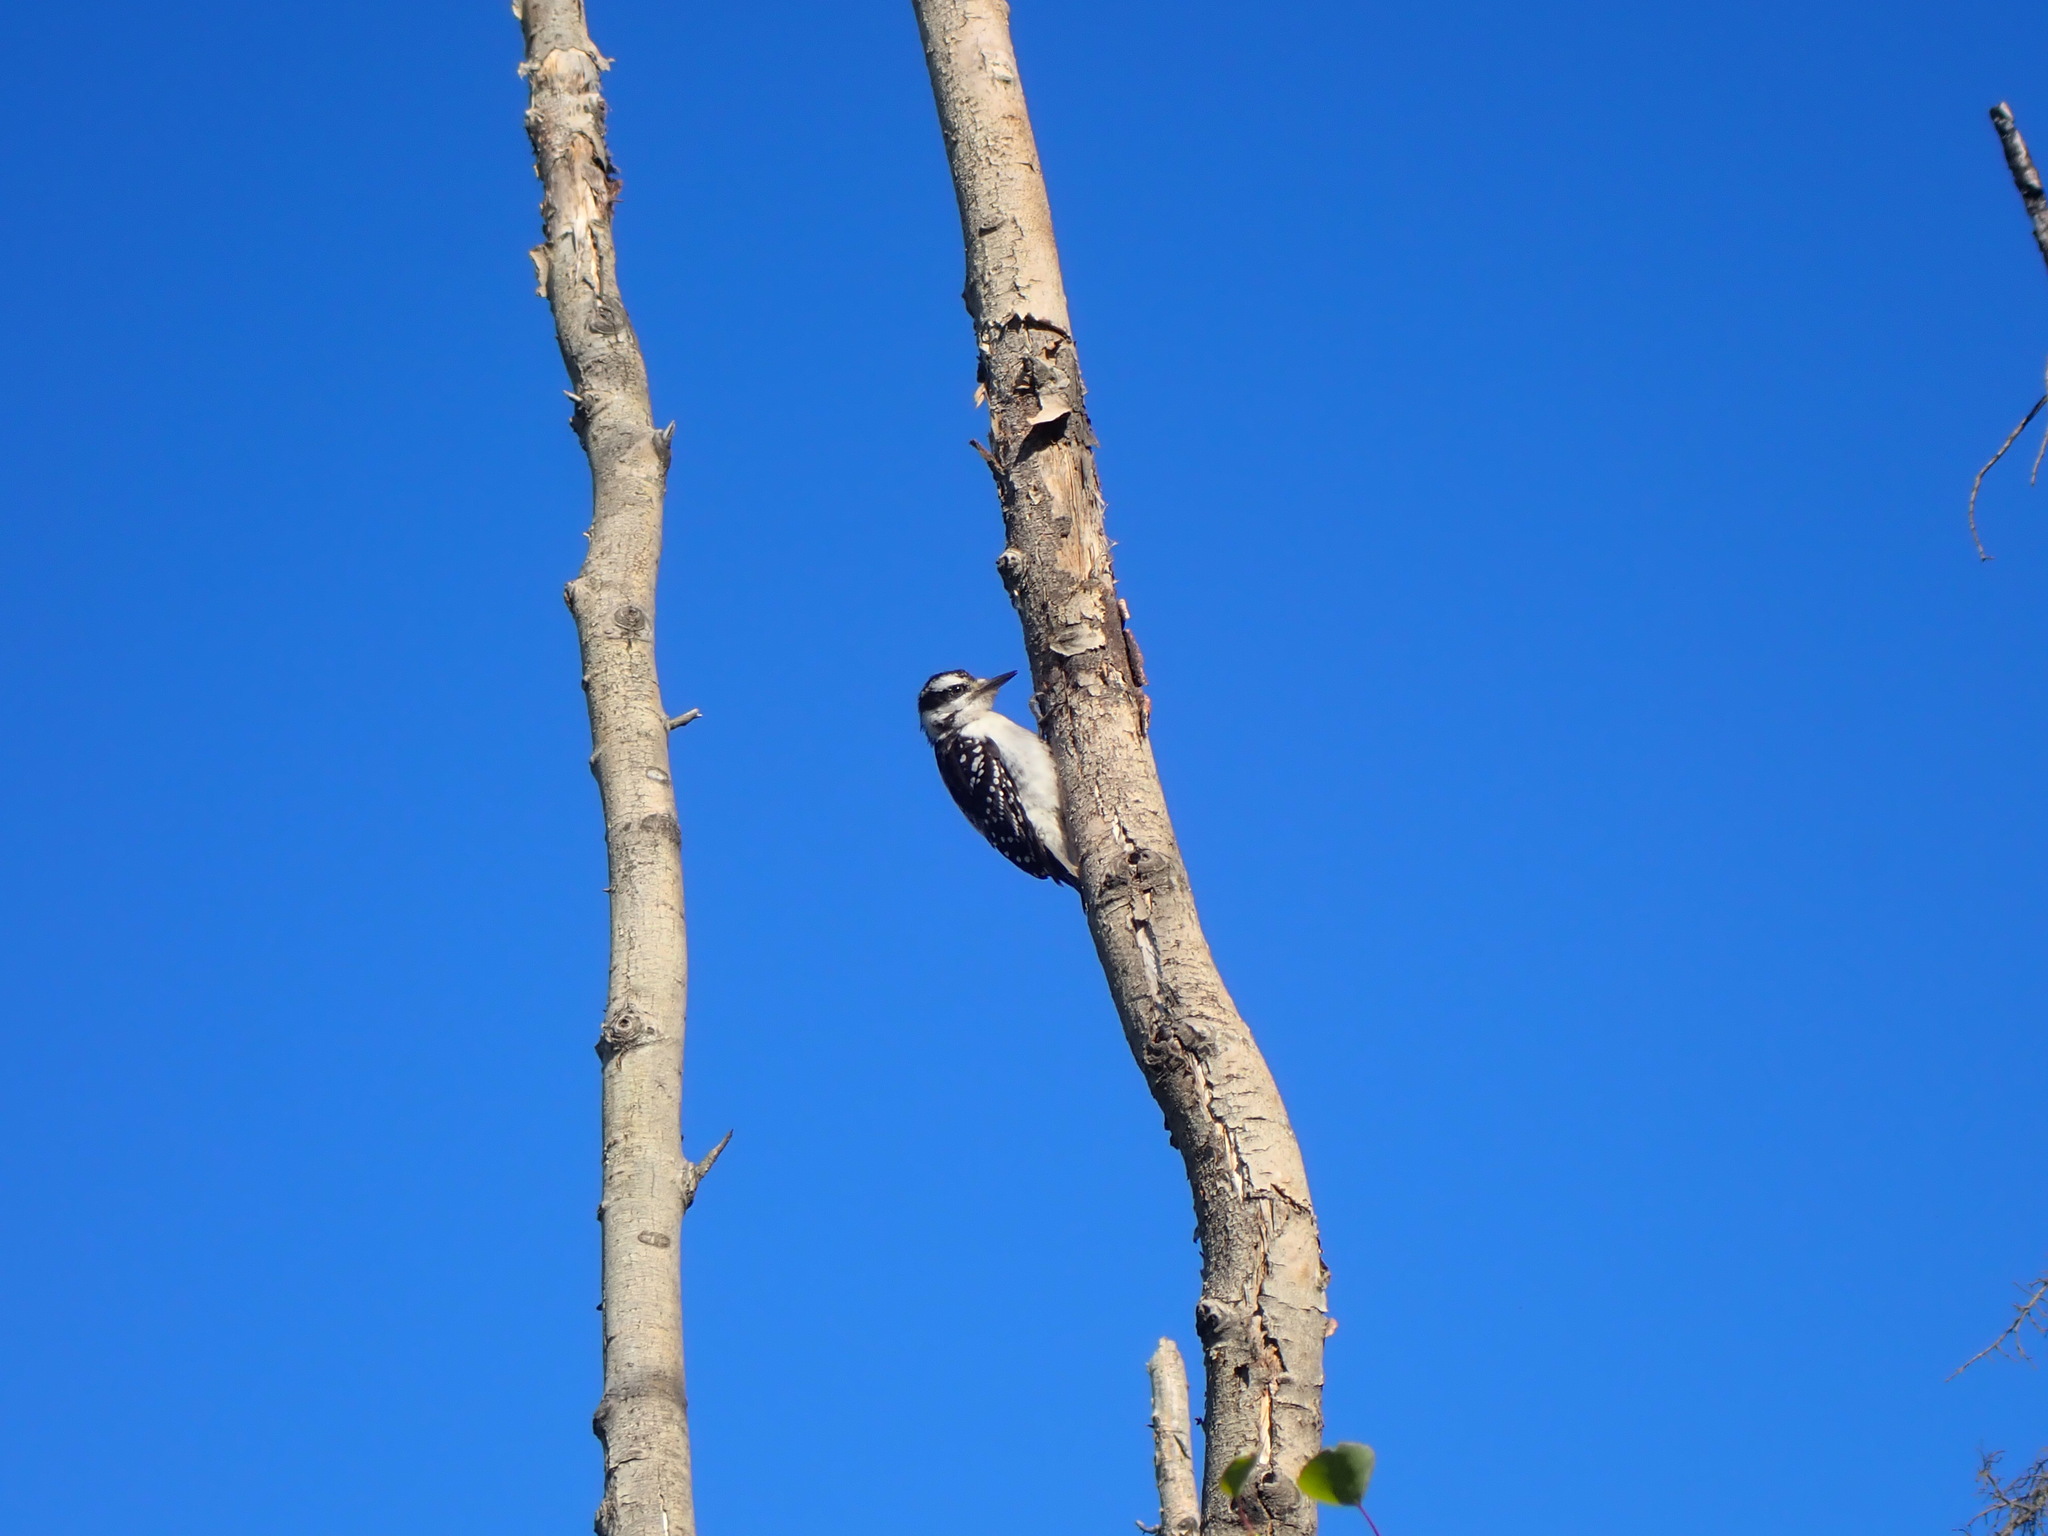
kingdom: Animalia
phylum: Chordata
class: Aves
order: Piciformes
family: Picidae
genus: Dryobates
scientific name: Dryobates pubescens
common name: Downy woodpecker
